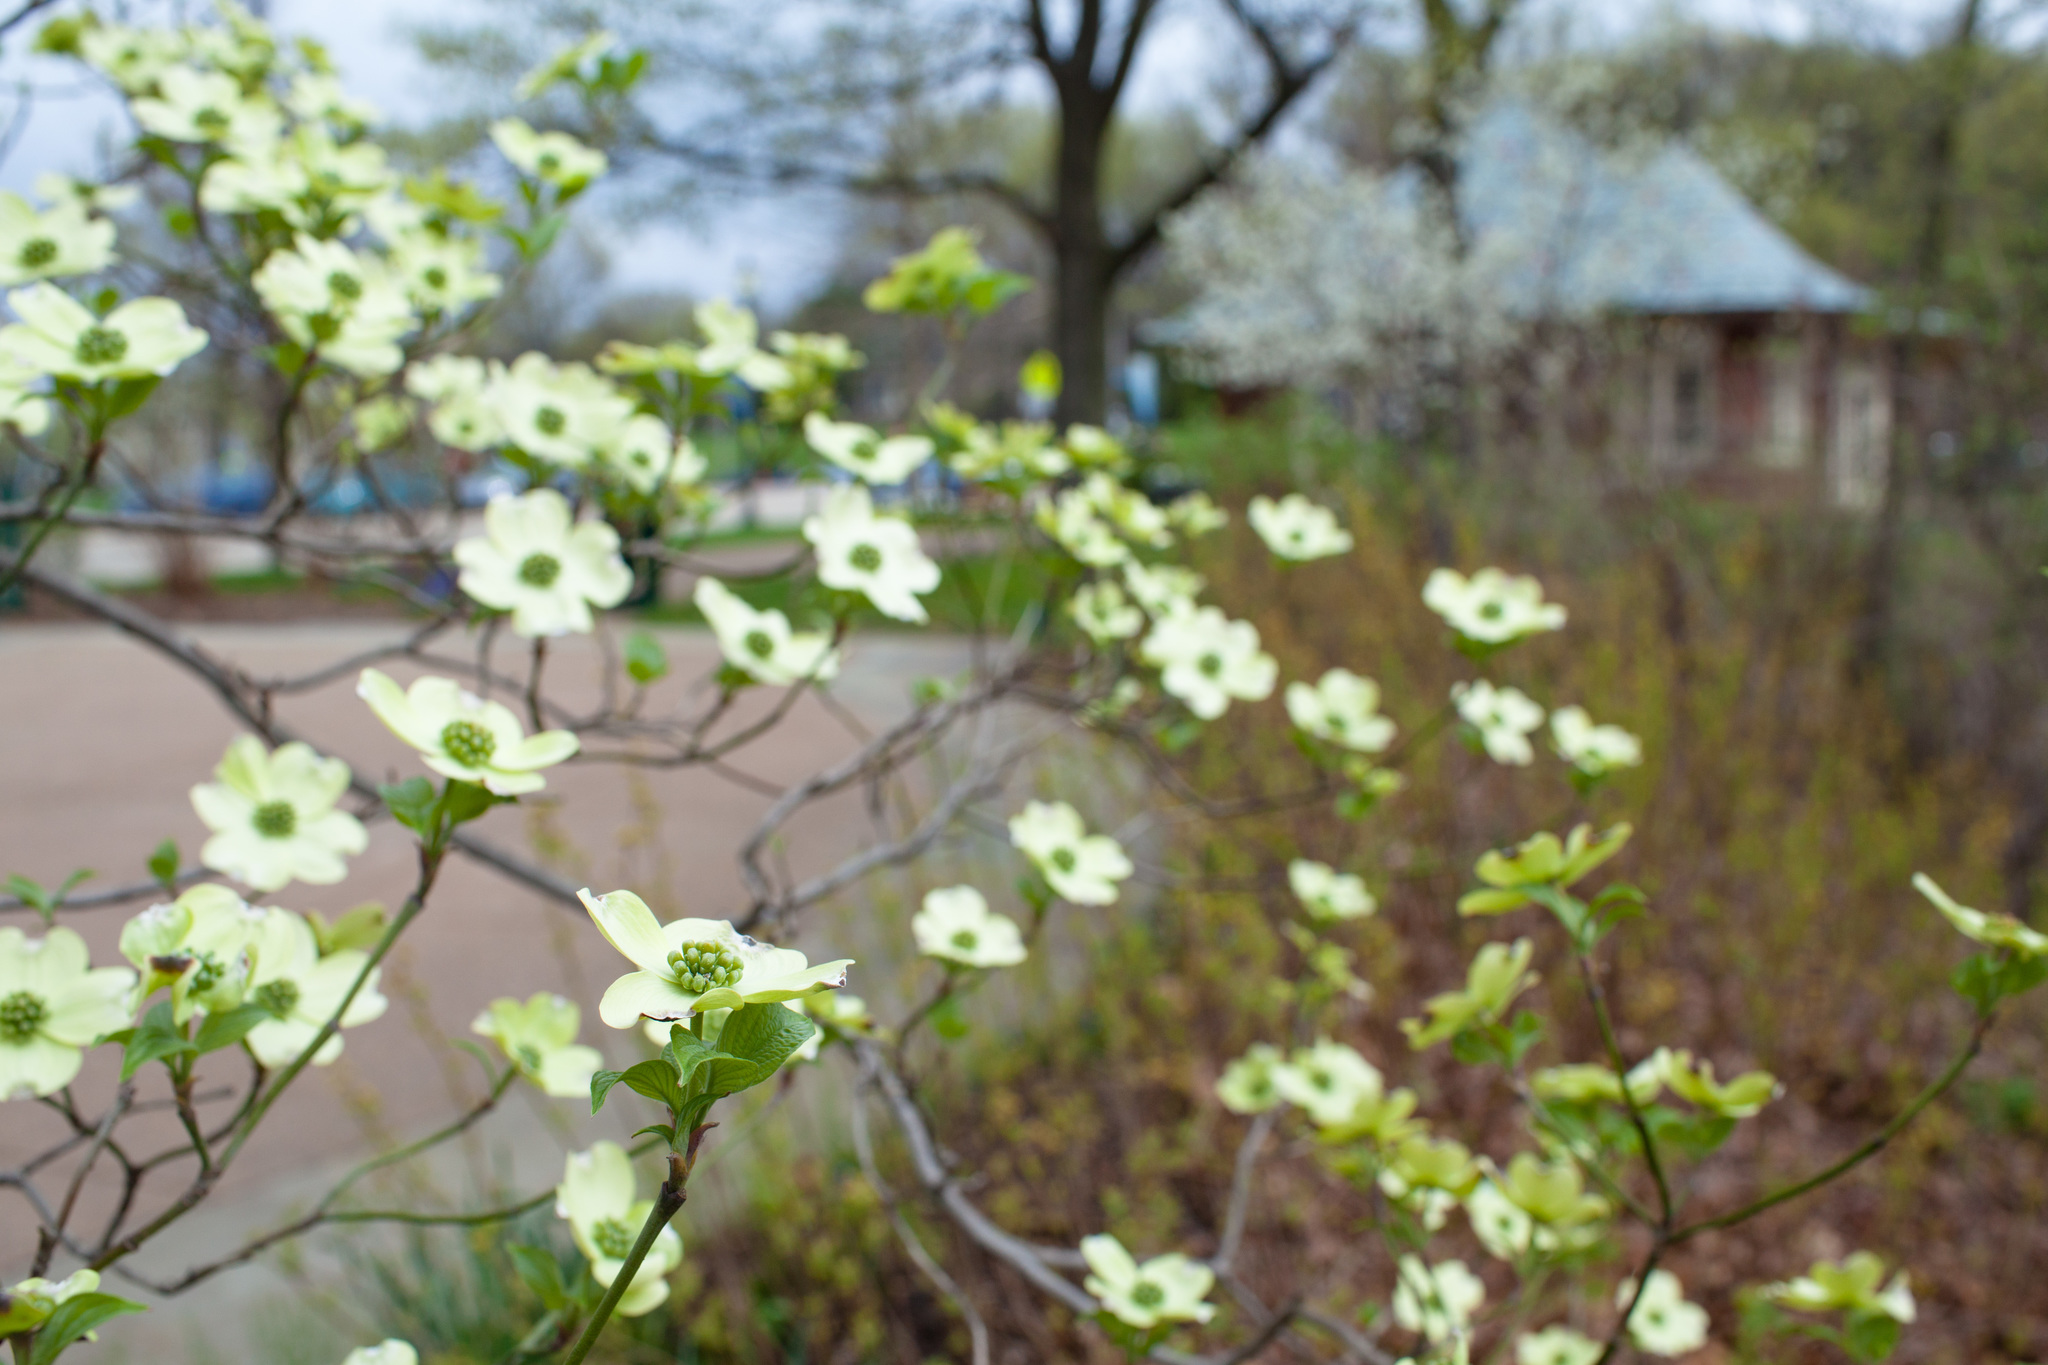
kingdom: Plantae
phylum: Tracheophyta
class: Magnoliopsida
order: Cornales
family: Cornaceae
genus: Cornus
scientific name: Cornus florida
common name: Flowering dogwood
